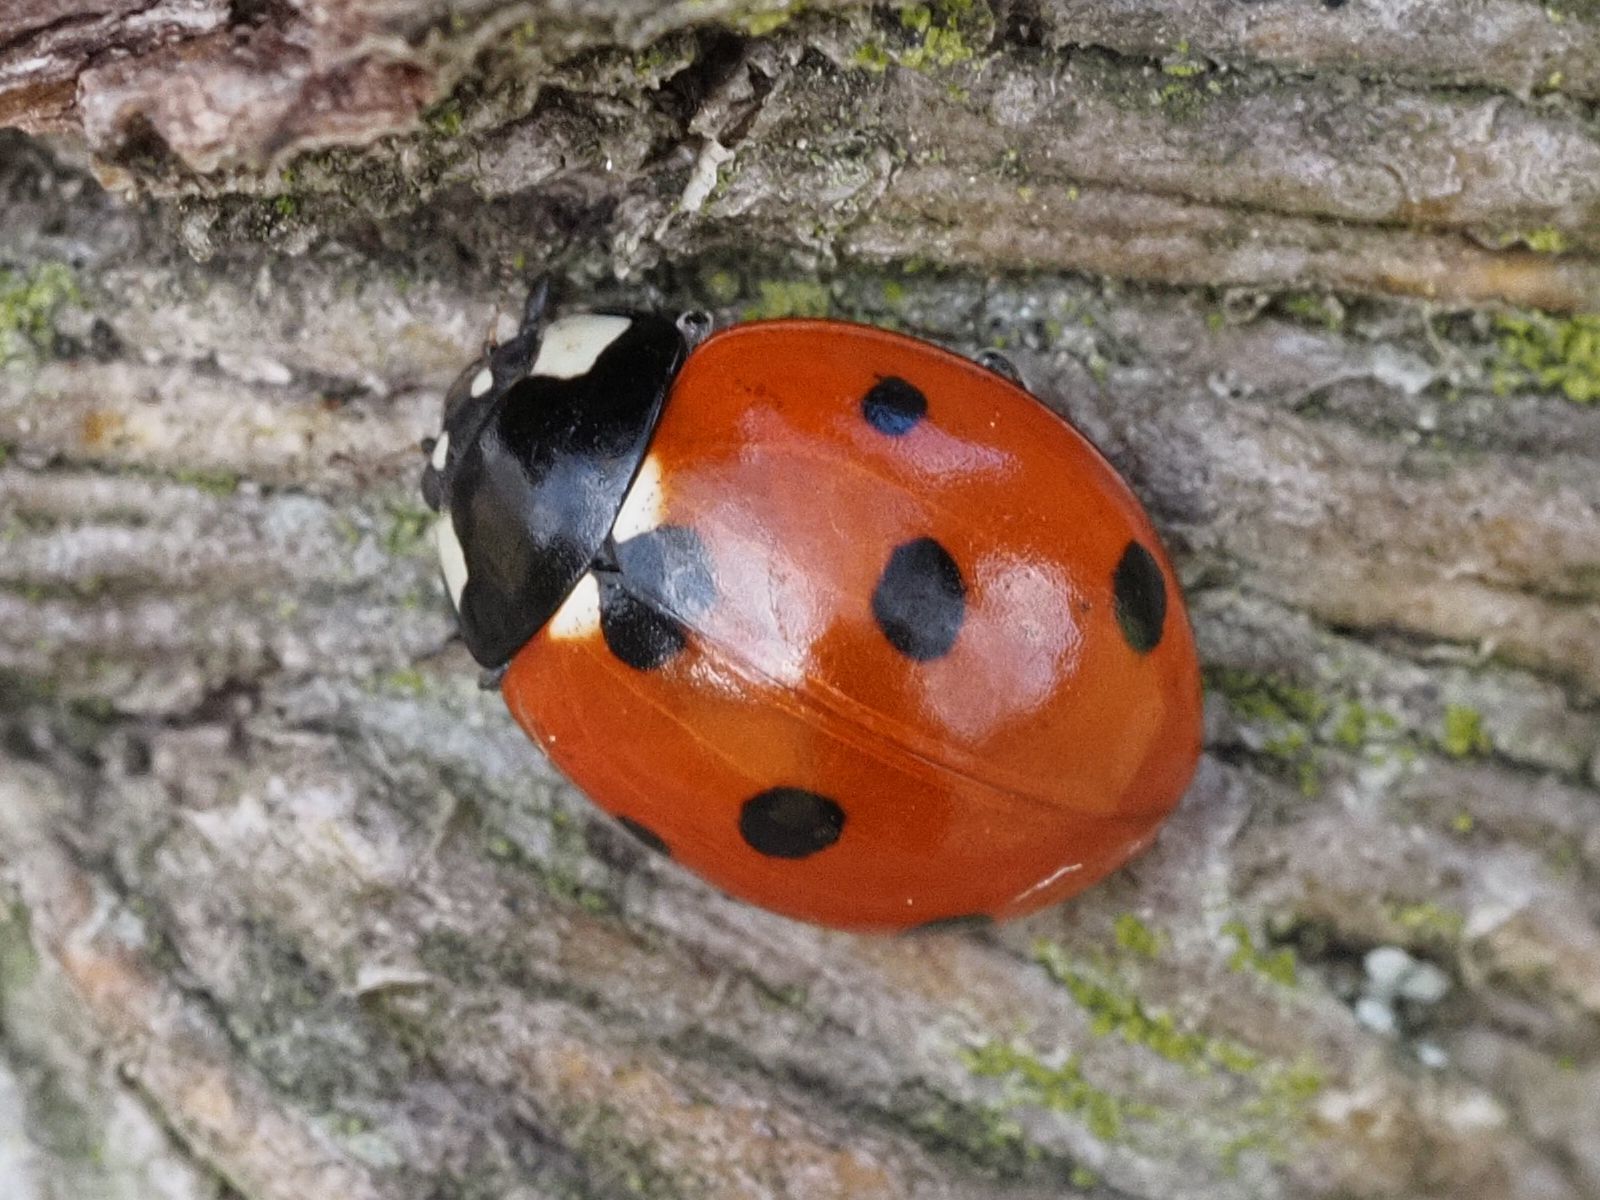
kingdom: Animalia
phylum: Arthropoda
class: Insecta
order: Coleoptera
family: Coccinellidae
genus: Coccinella
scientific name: Coccinella septempunctata
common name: Sevenspotted lady beetle
